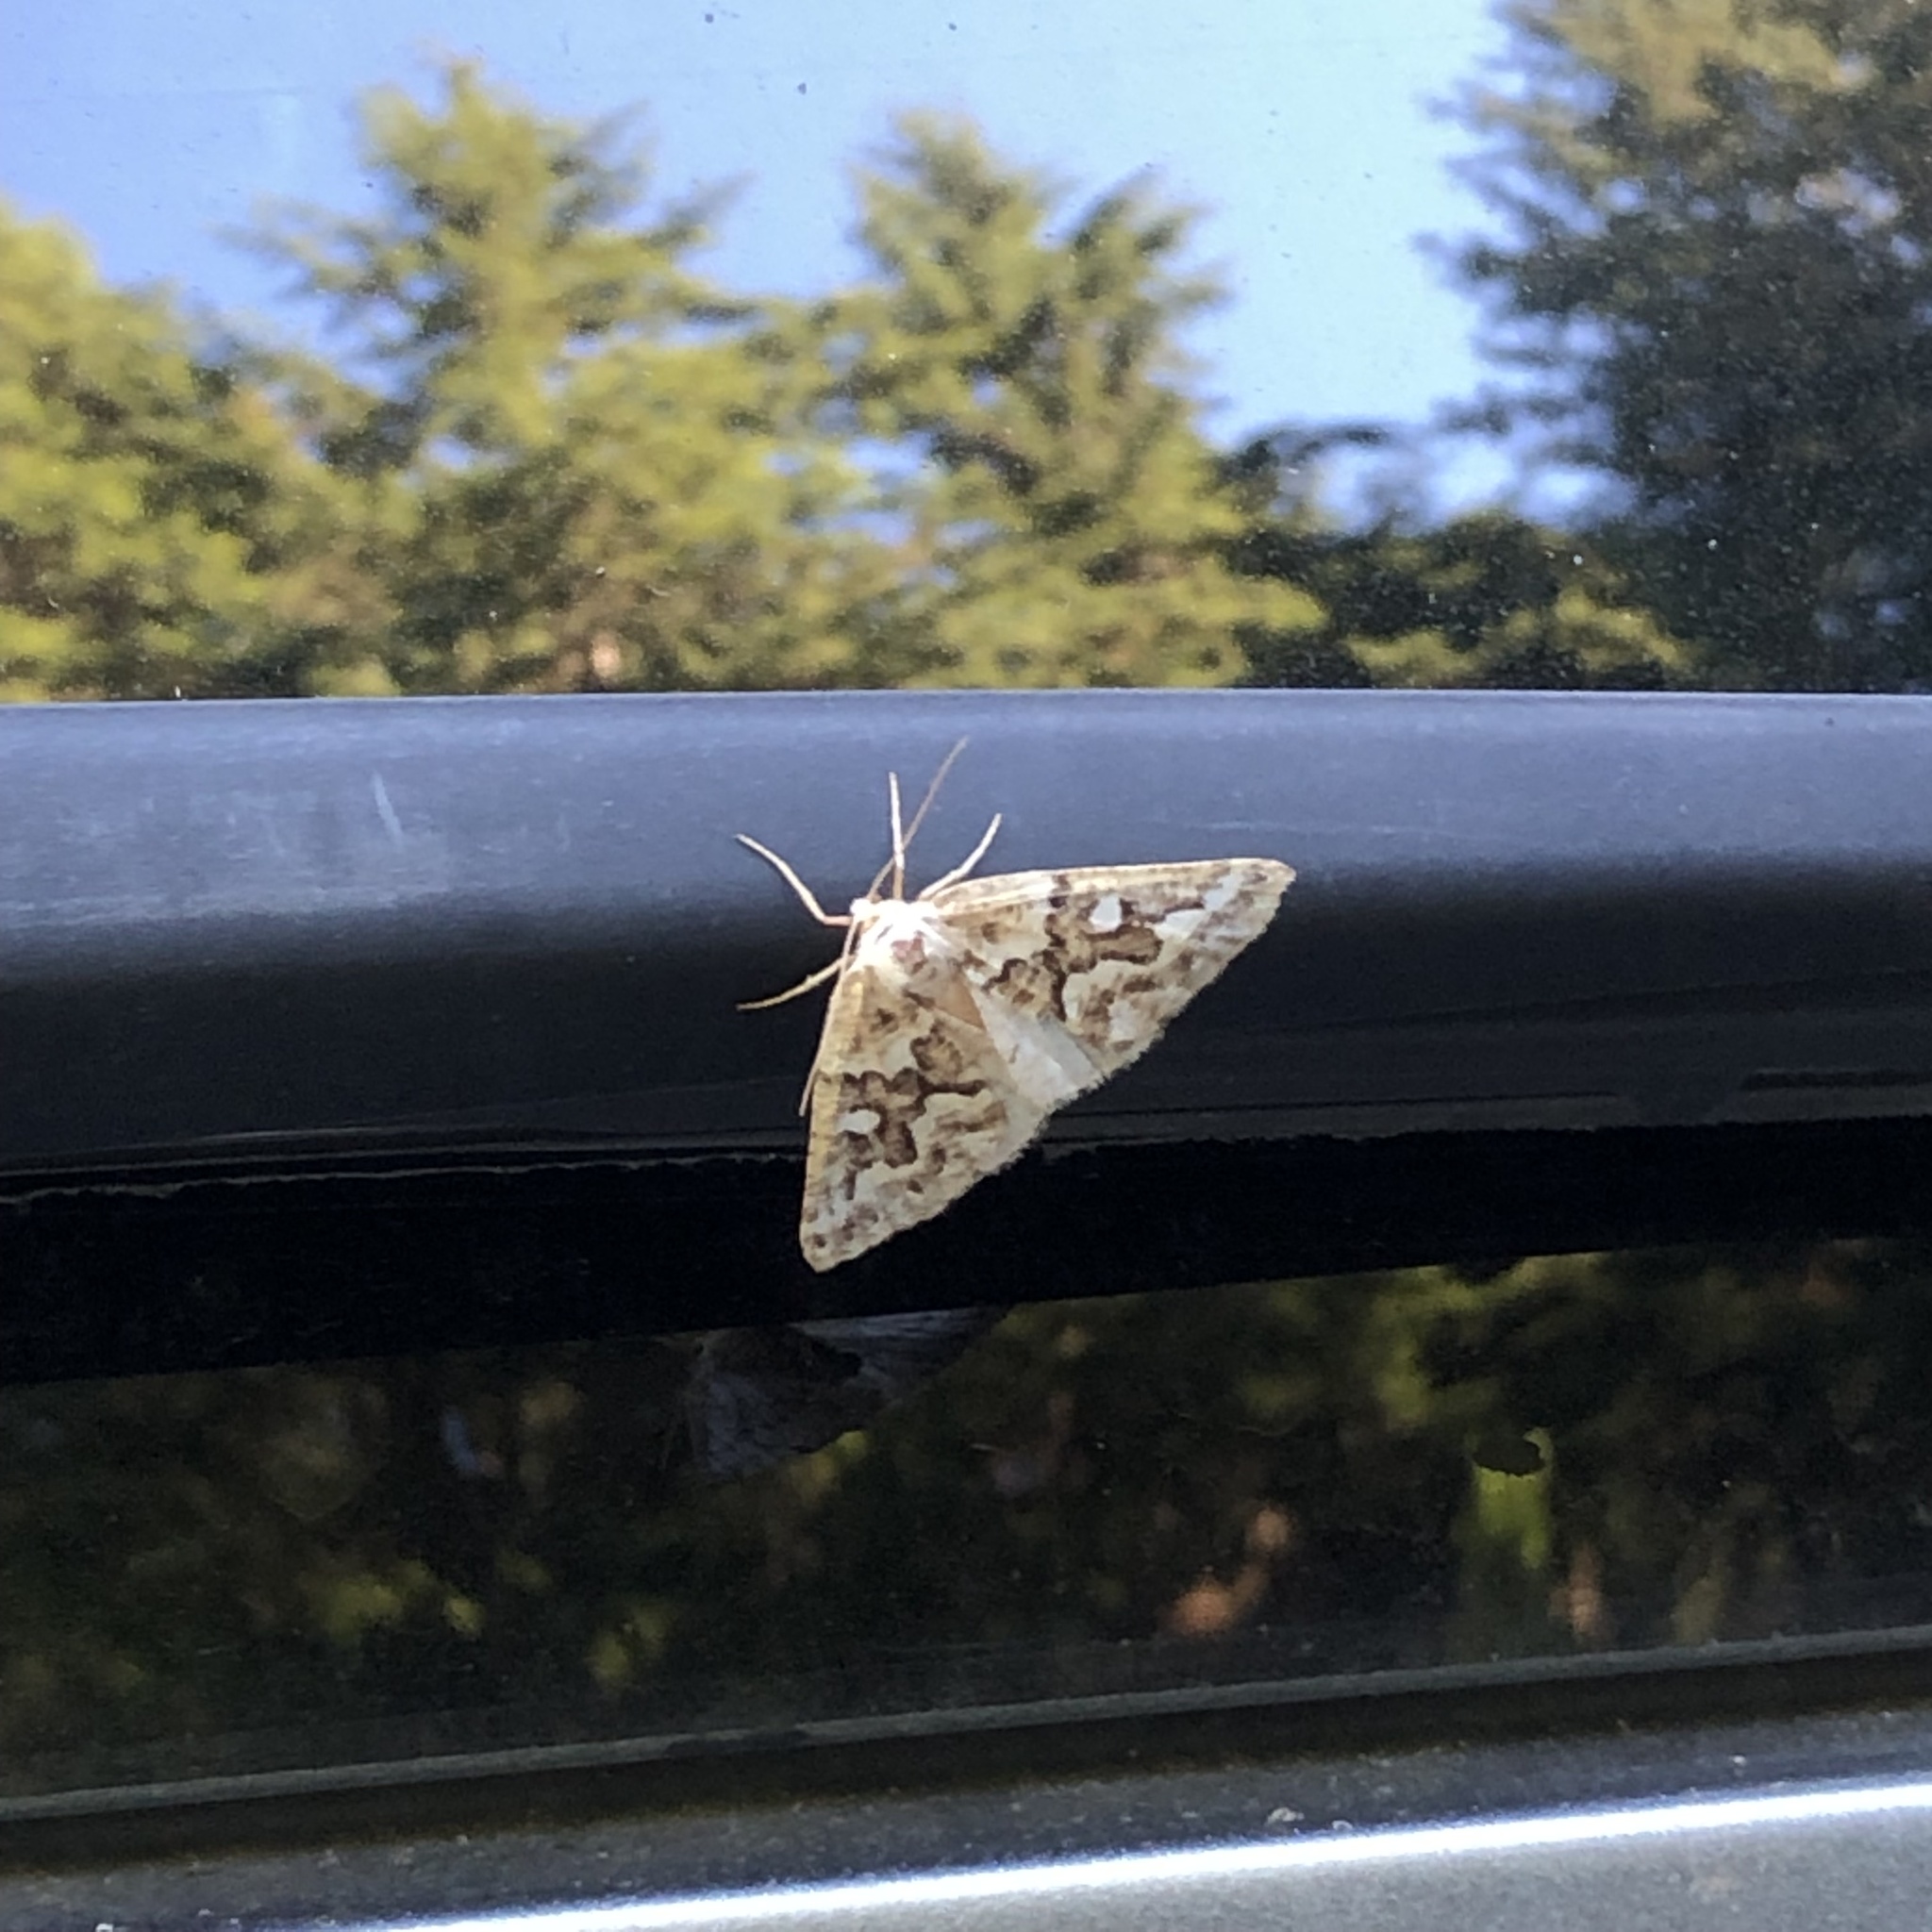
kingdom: Animalia
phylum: Arthropoda
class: Insecta
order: Lepidoptera
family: Geometridae
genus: Caripeta
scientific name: Caripeta divisata
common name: Gray spruce looper
